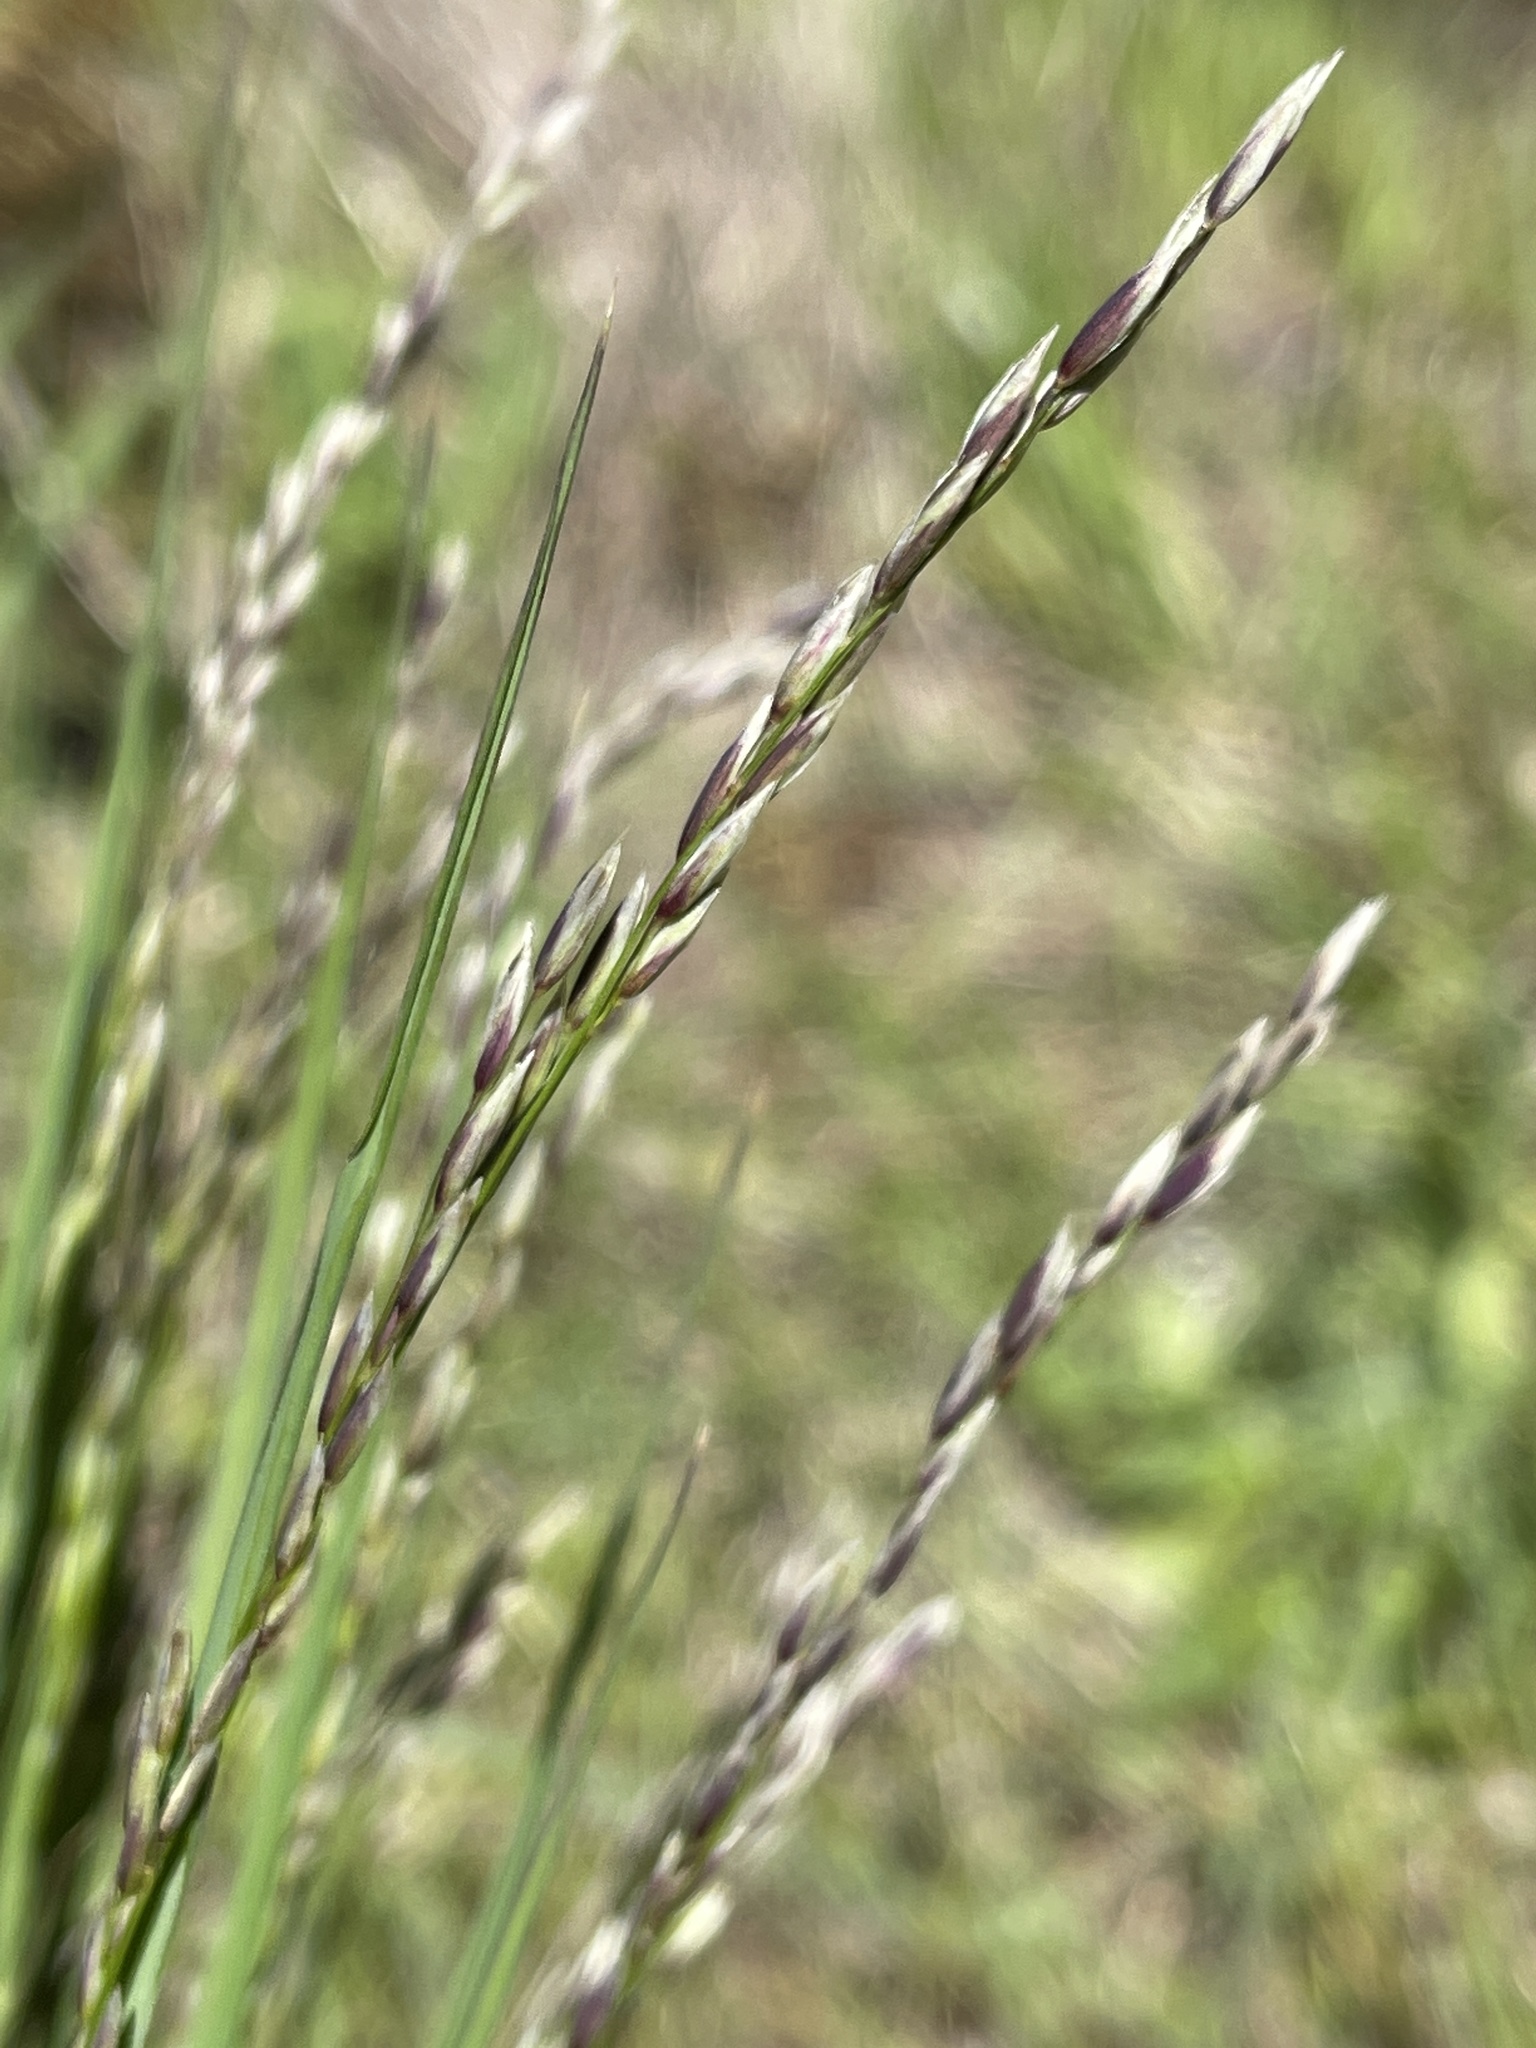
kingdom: Plantae
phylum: Tracheophyta
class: Liliopsida
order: Poales
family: Poaceae
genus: Melica
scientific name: Melica torreyana
